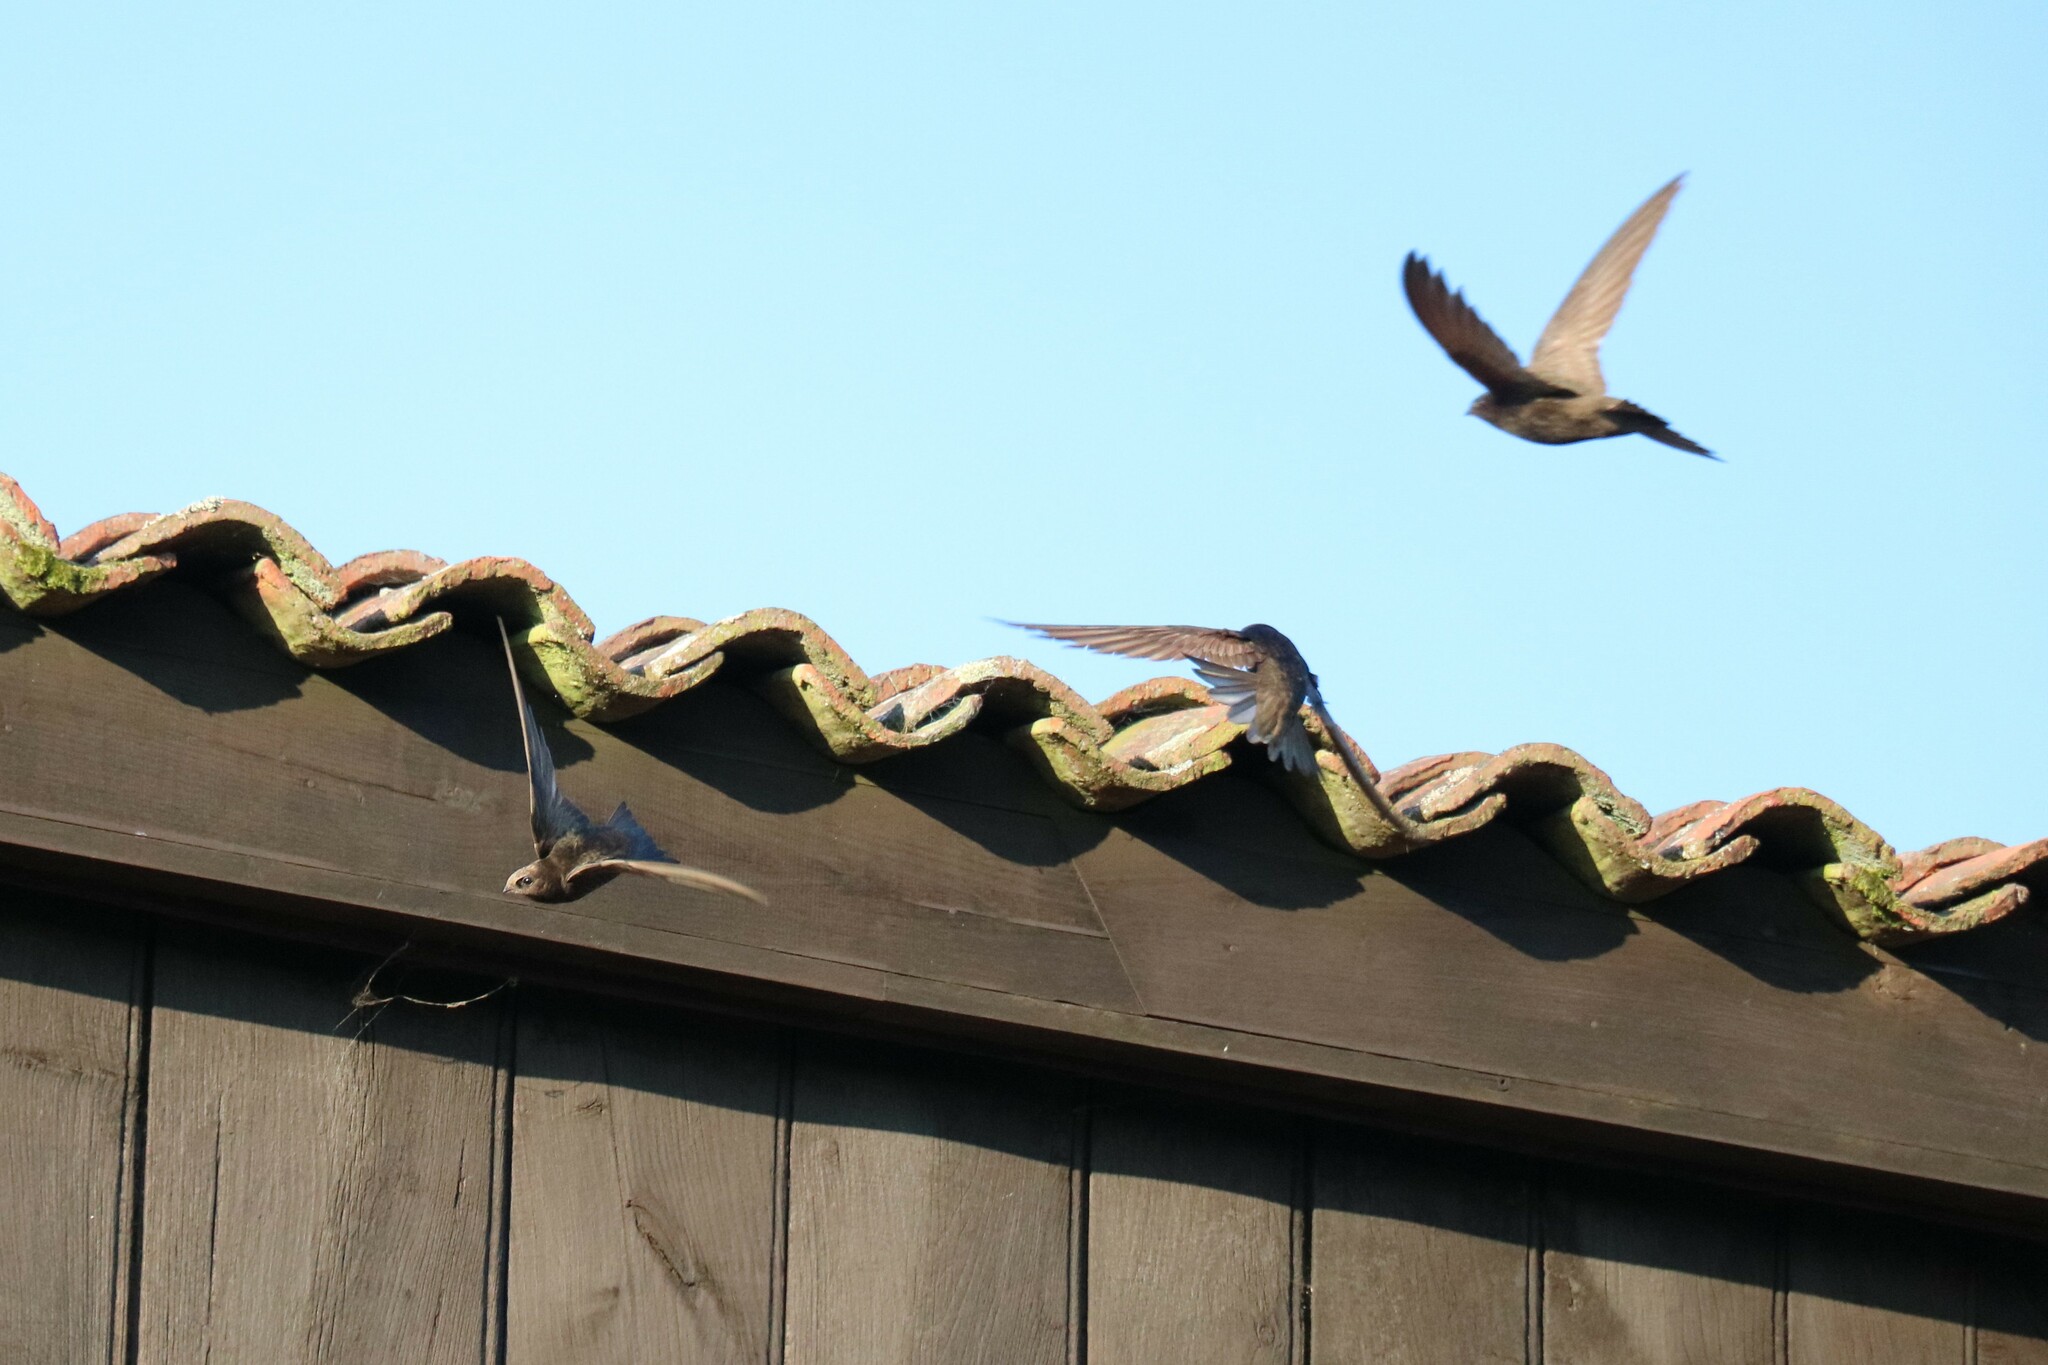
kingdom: Animalia
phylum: Chordata
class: Aves
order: Apodiformes
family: Apodidae
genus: Apus
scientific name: Apus apus
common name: Common swift
